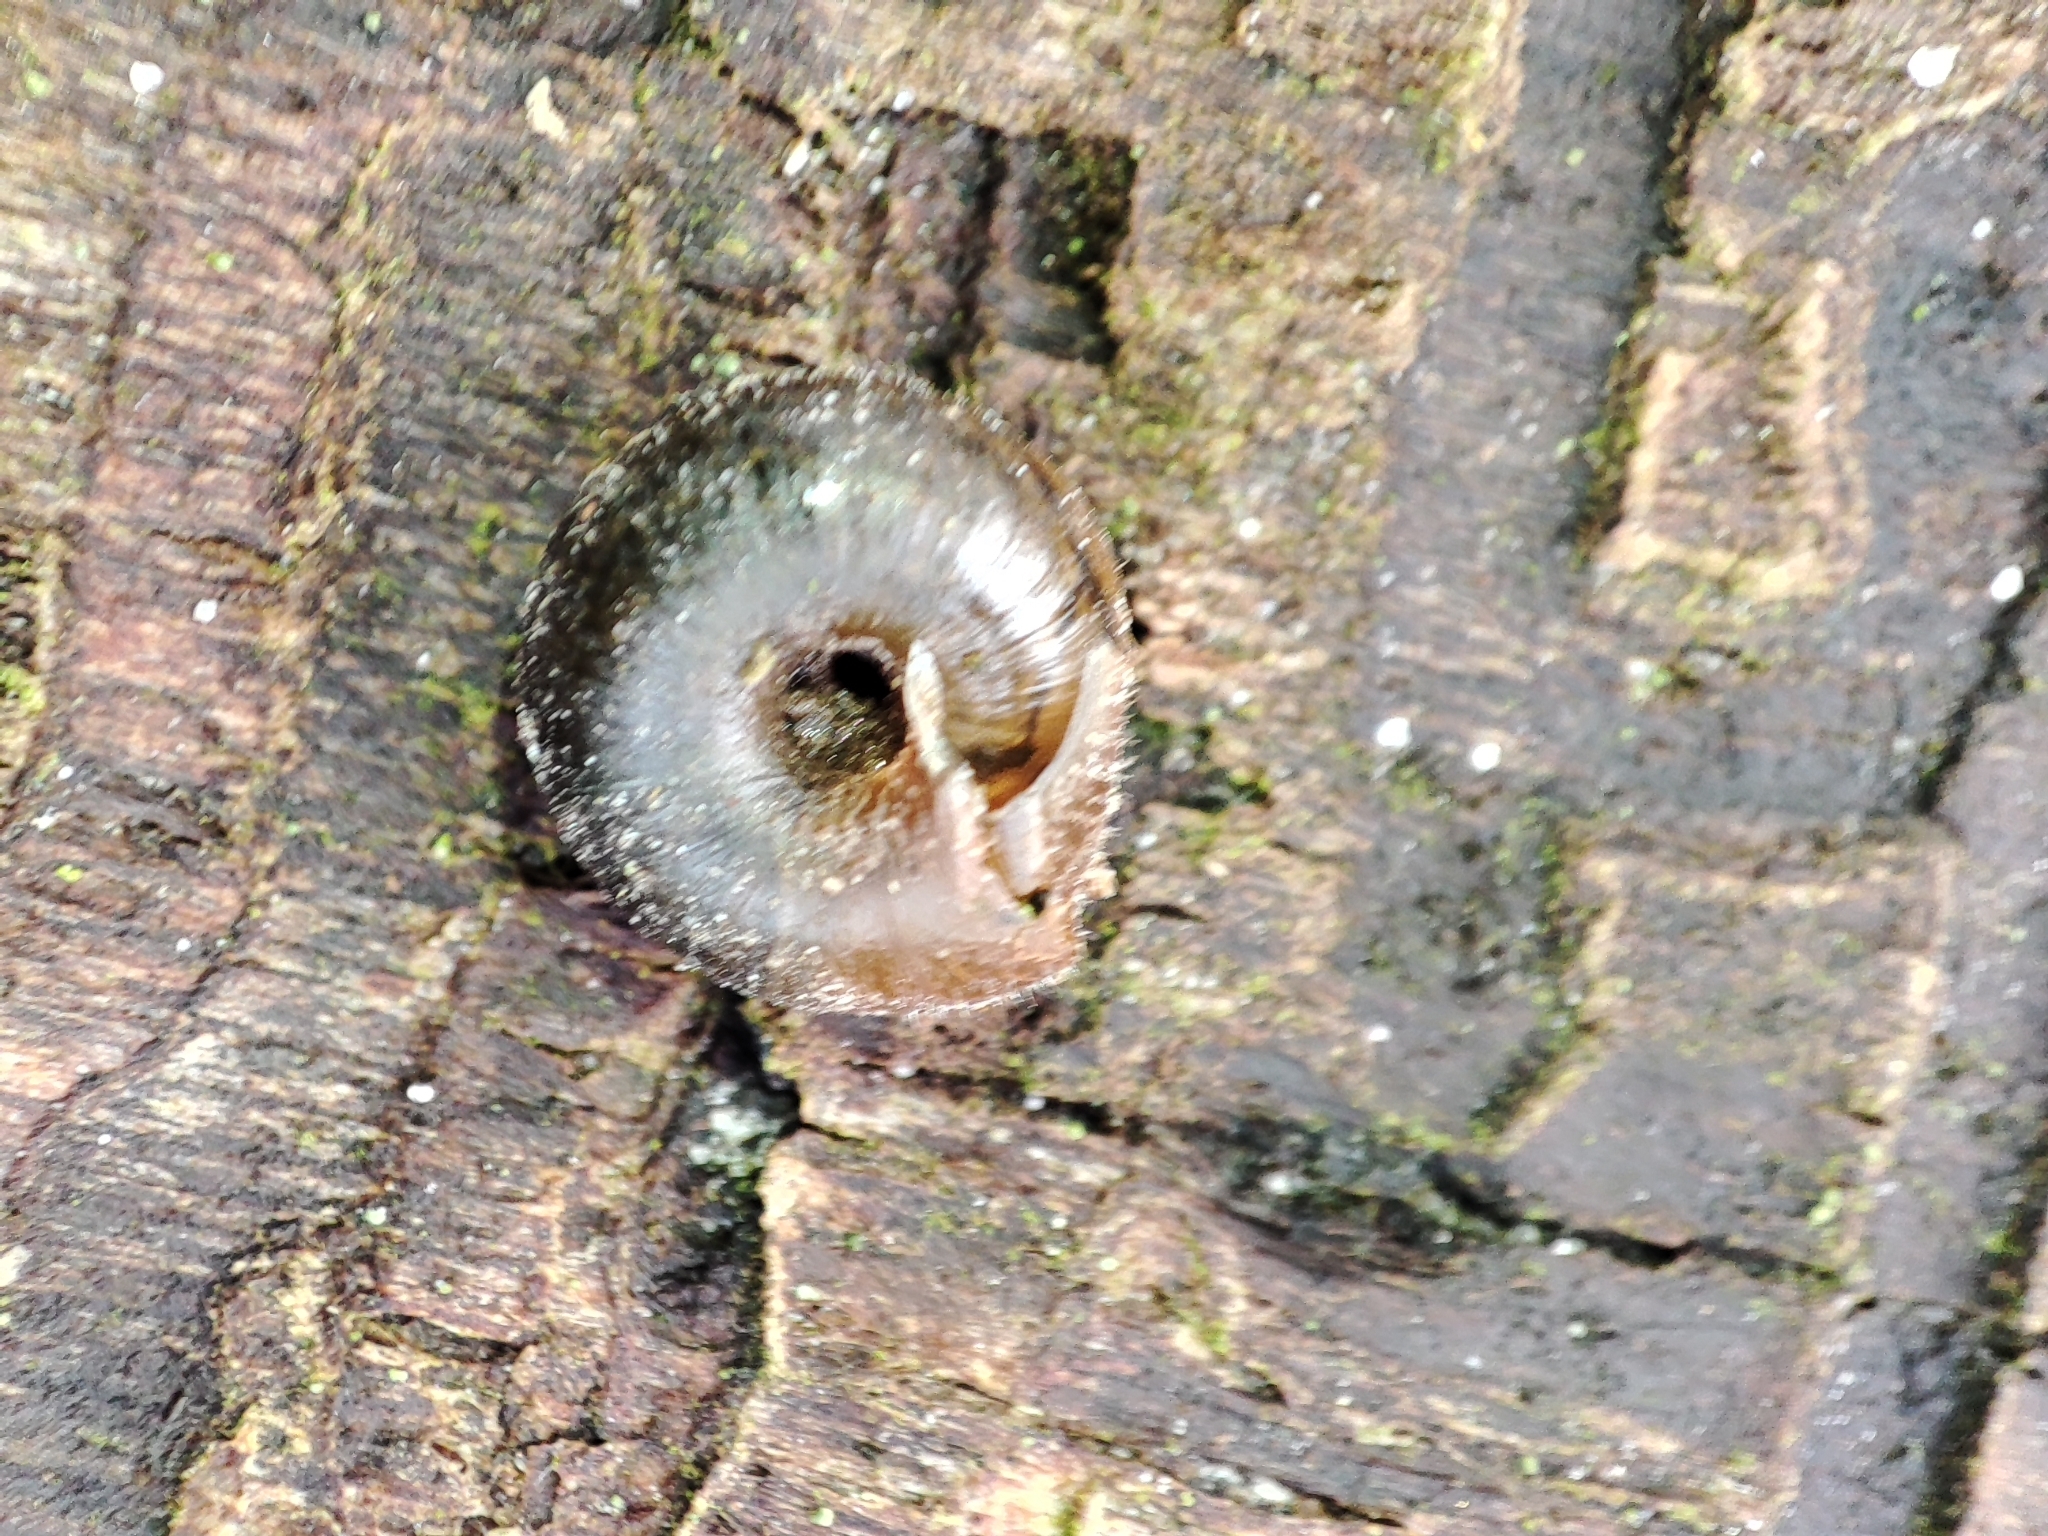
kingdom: Animalia
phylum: Mollusca
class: Gastropoda
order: Stylommatophora
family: Hygromiidae
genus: Trochulus
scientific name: Trochulus hispidus
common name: Hairy snail
